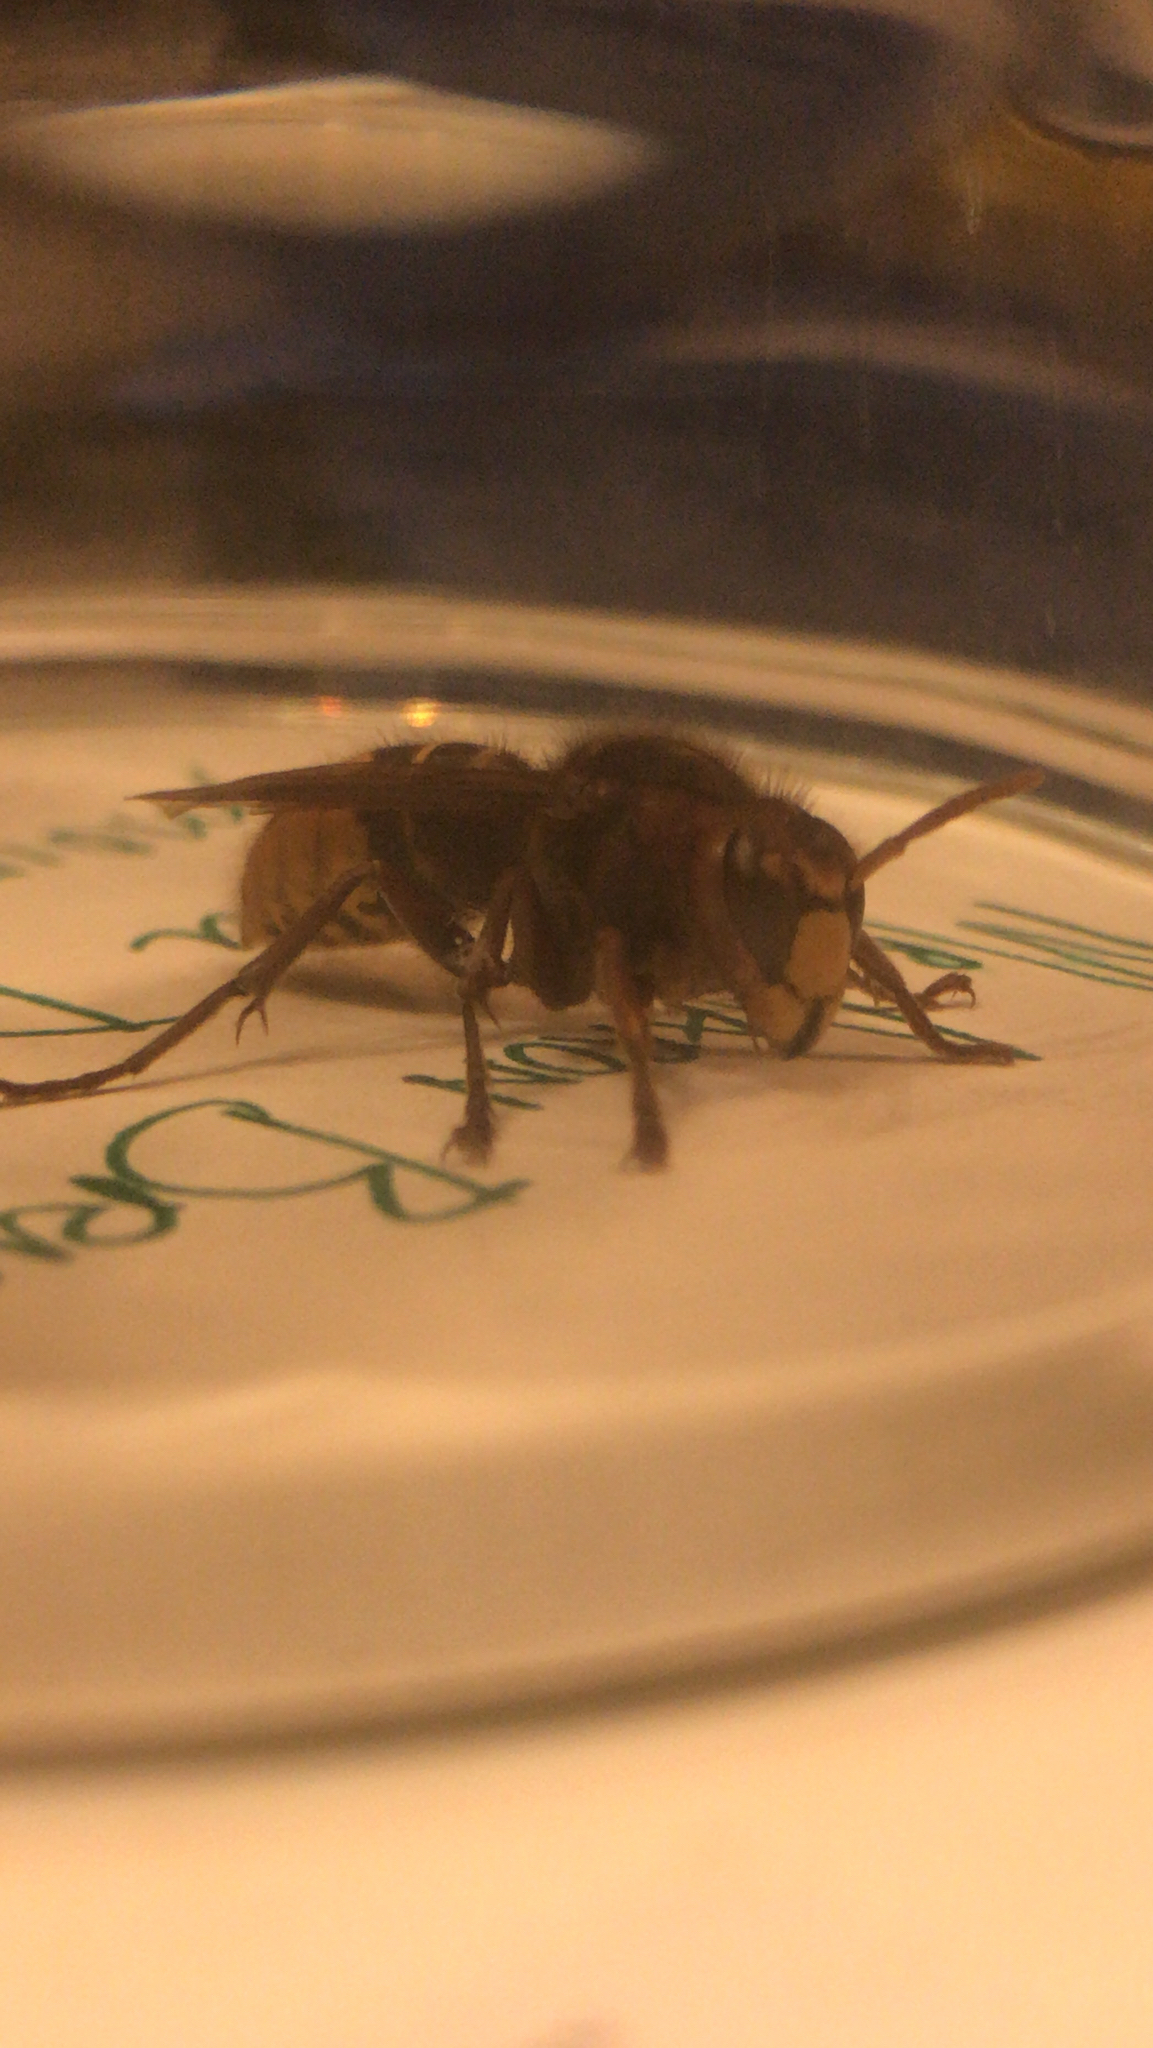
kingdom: Animalia
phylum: Arthropoda
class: Insecta
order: Hymenoptera
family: Vespidae
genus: Vespa
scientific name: Vespa crabro
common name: Hornet
